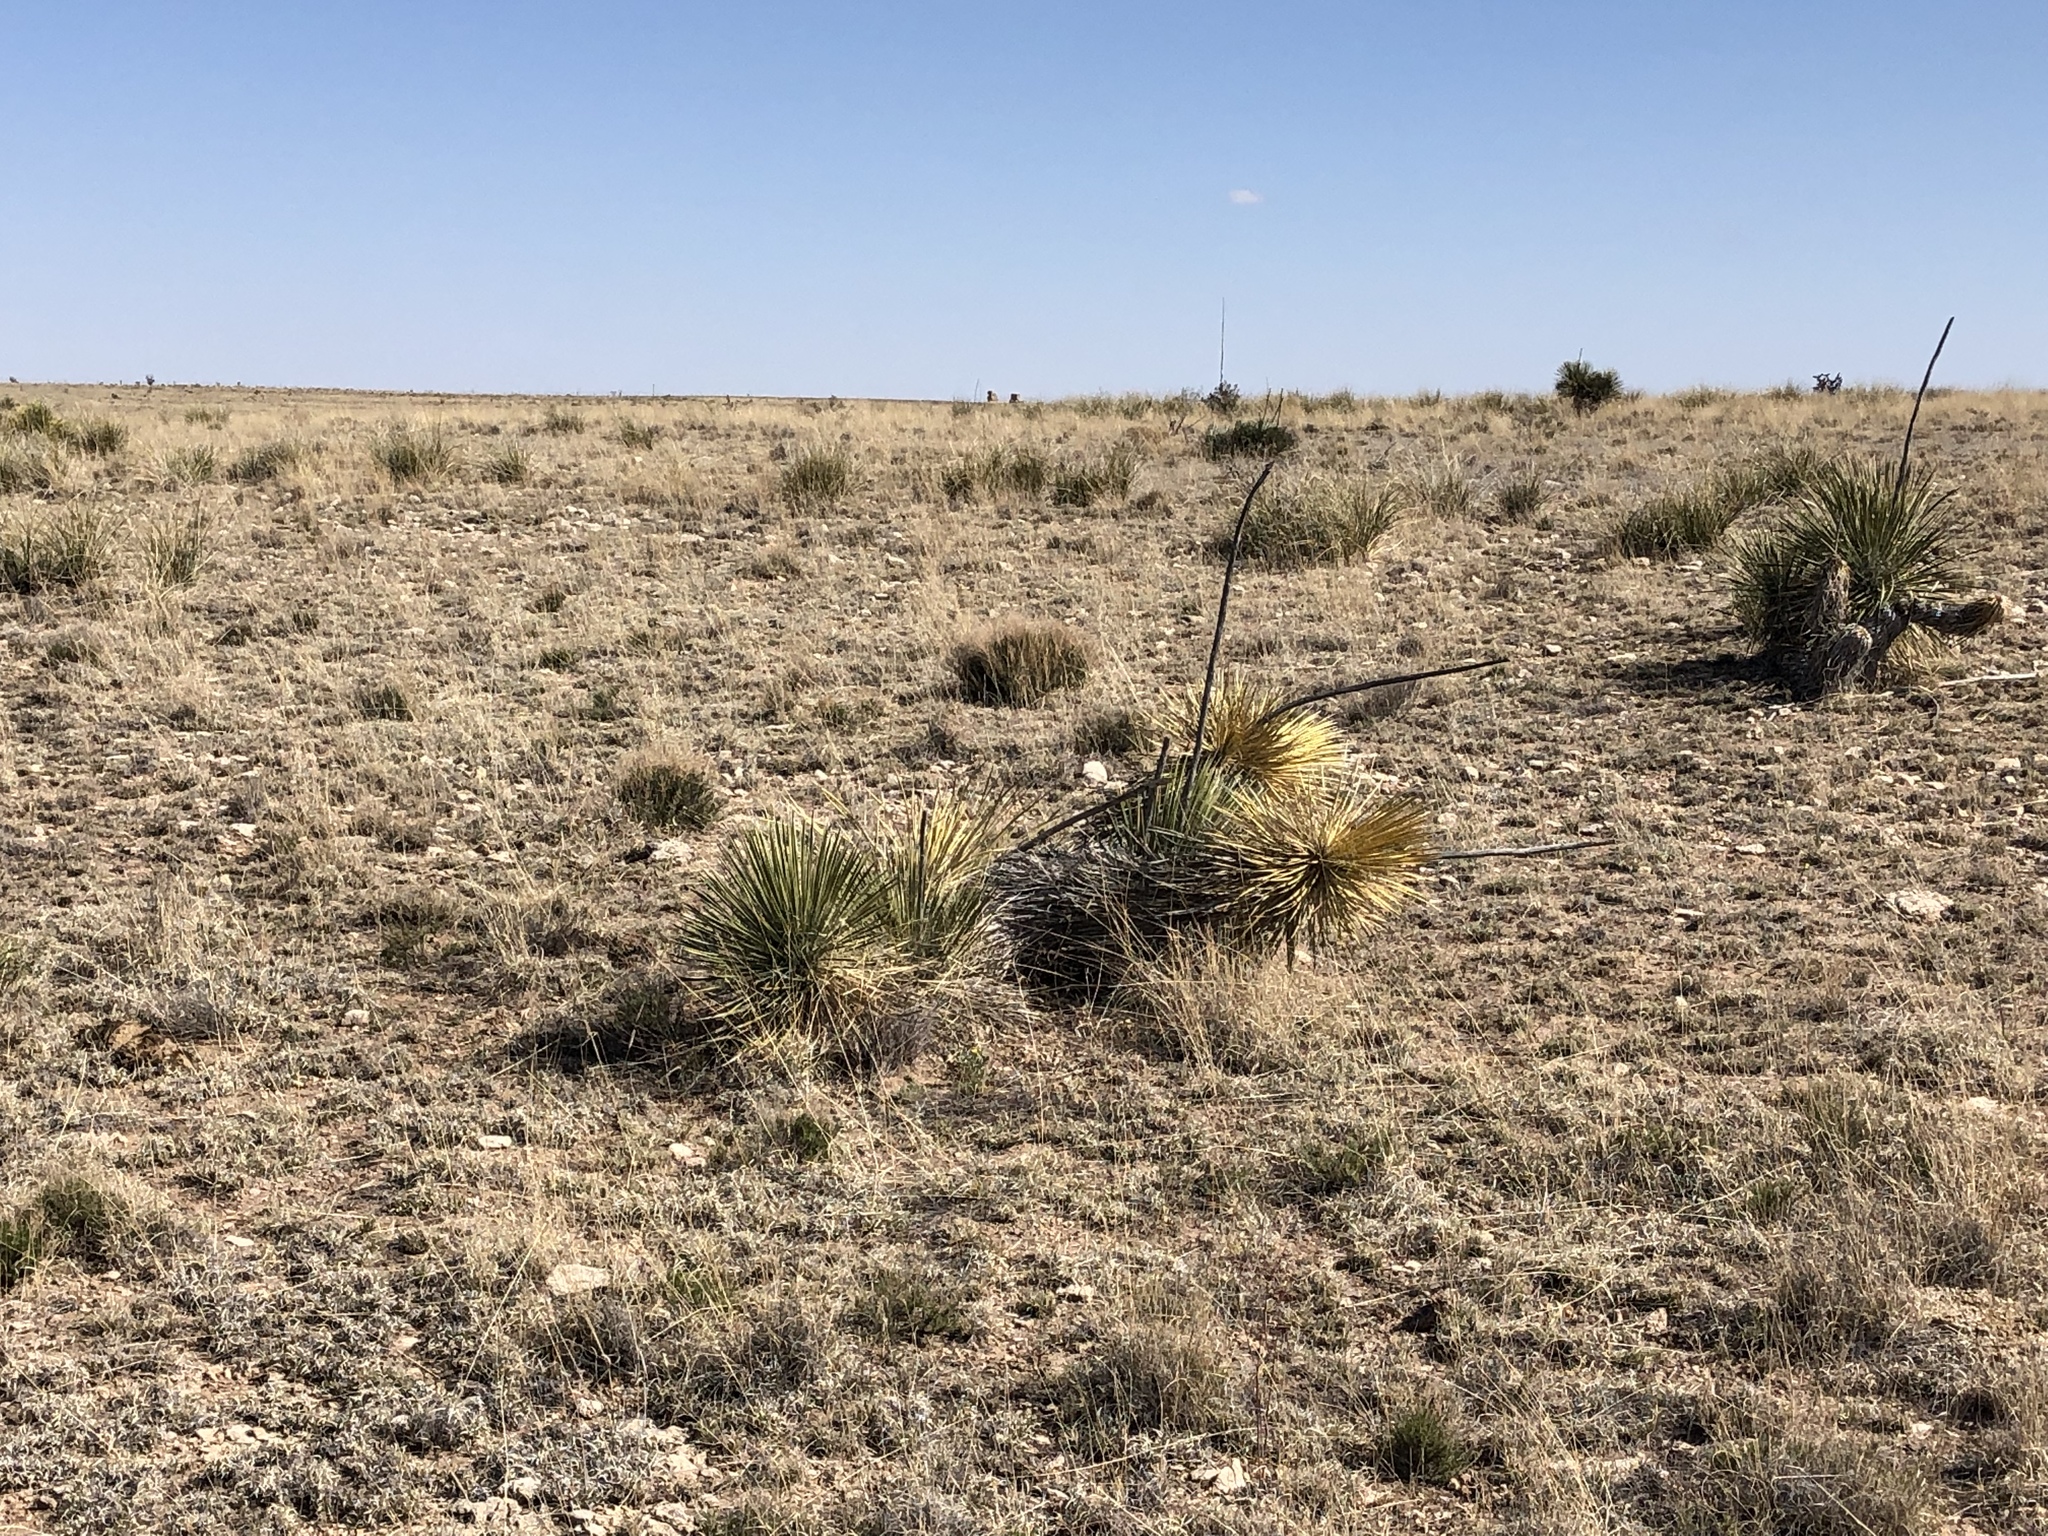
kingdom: Plantae
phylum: Tracheophyta
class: Liliopsida
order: Asparagales
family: Asparagaceae
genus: Yucca
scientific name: Yucca elata
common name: Palmella
